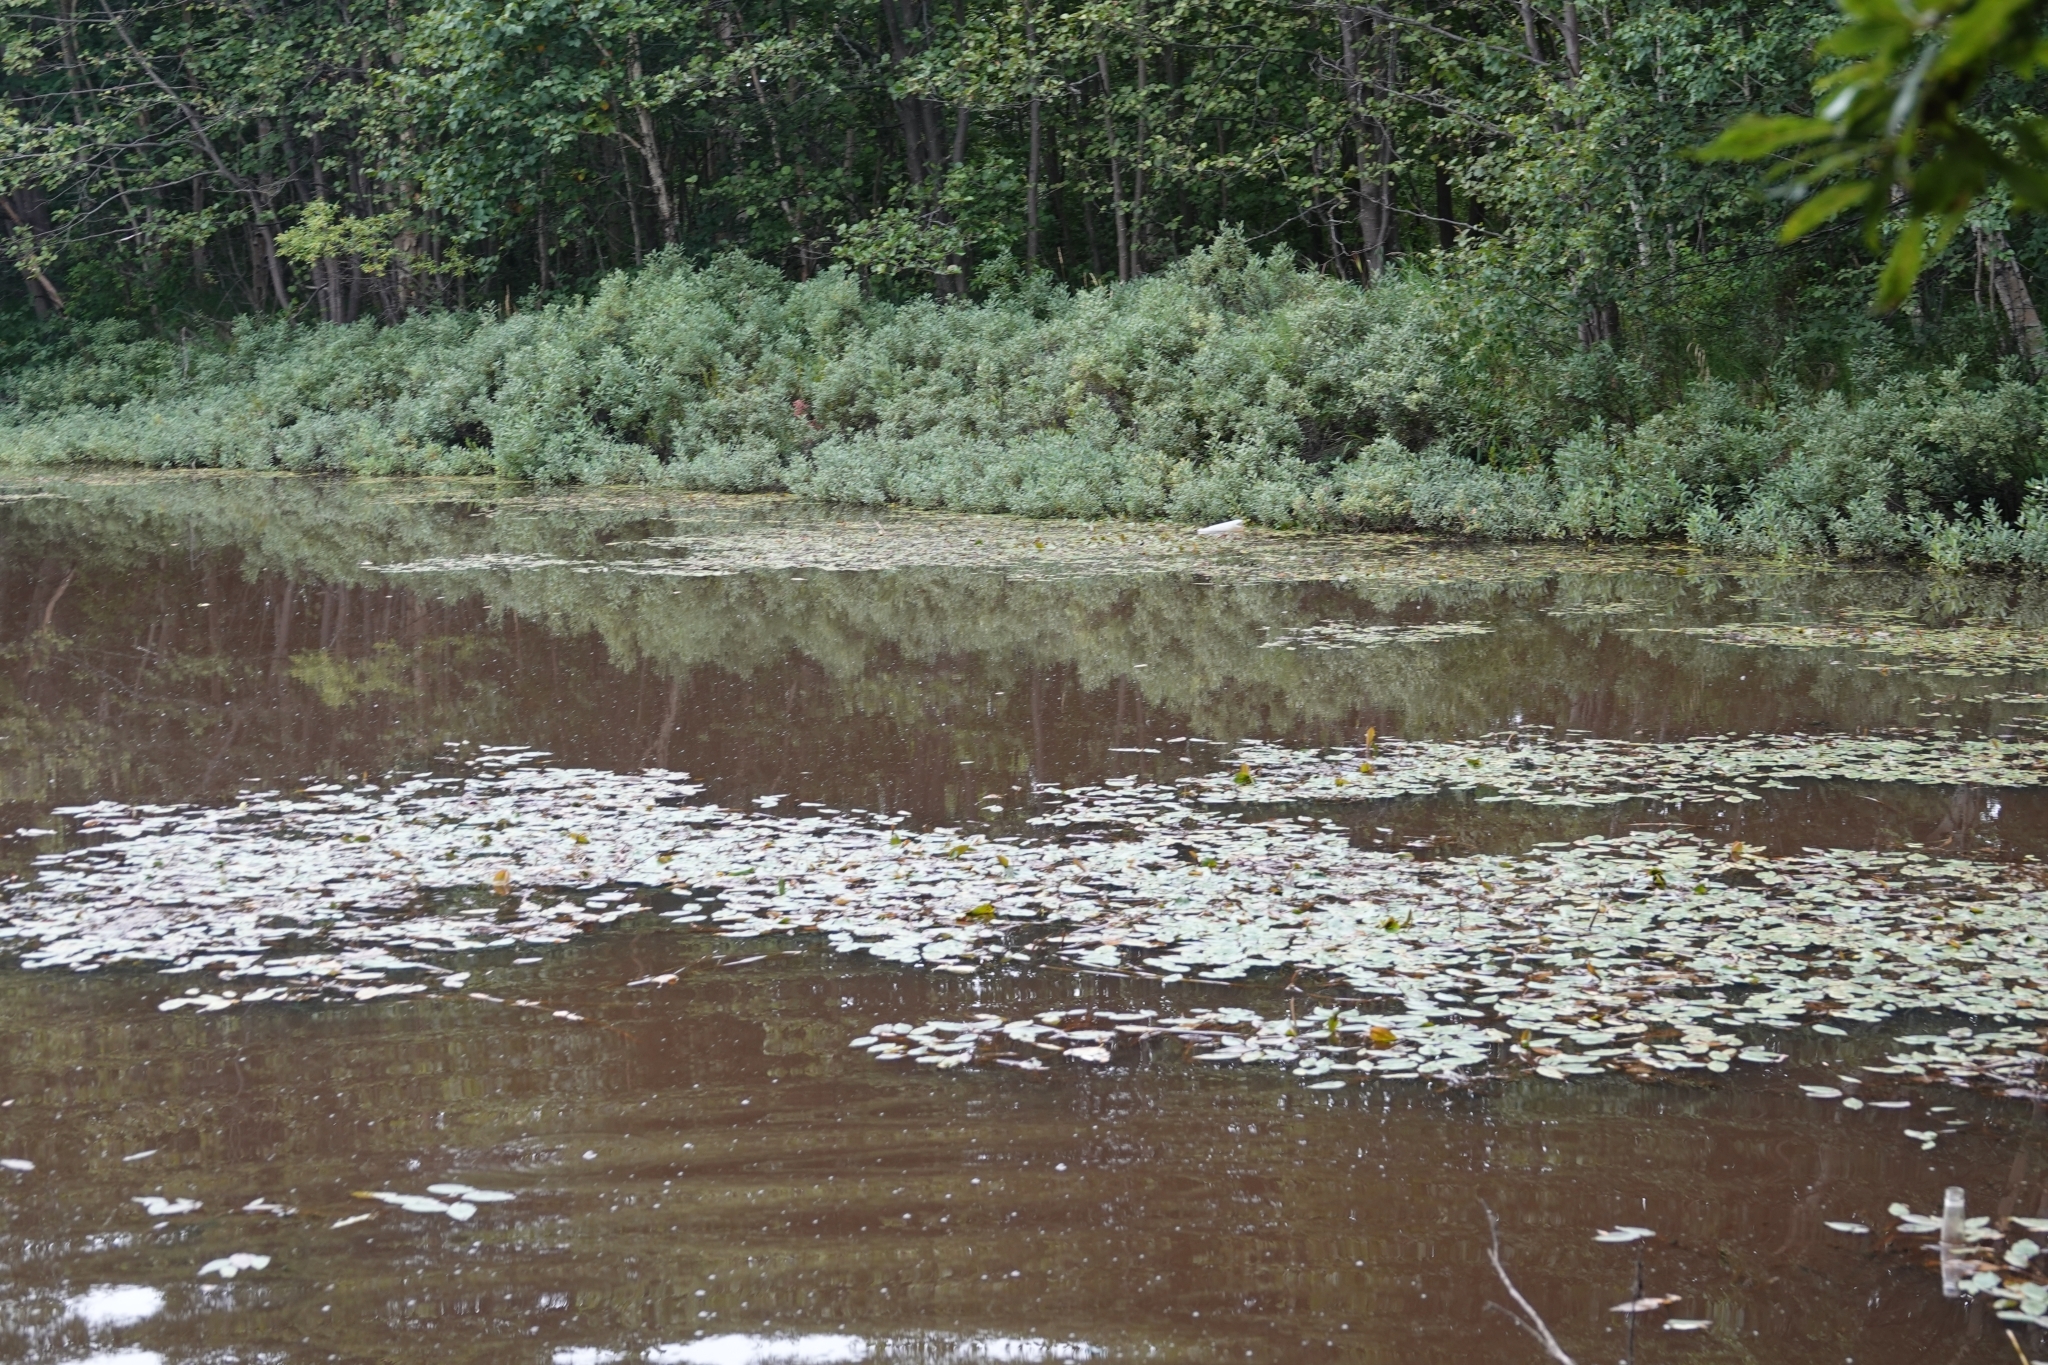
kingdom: Plantae
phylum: Tracheophyta
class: Liliopsida
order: Alismatales
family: Potamogetonaceae
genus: Potamogeton
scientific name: Potamogeton natans
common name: Broad-leaved pondweed
